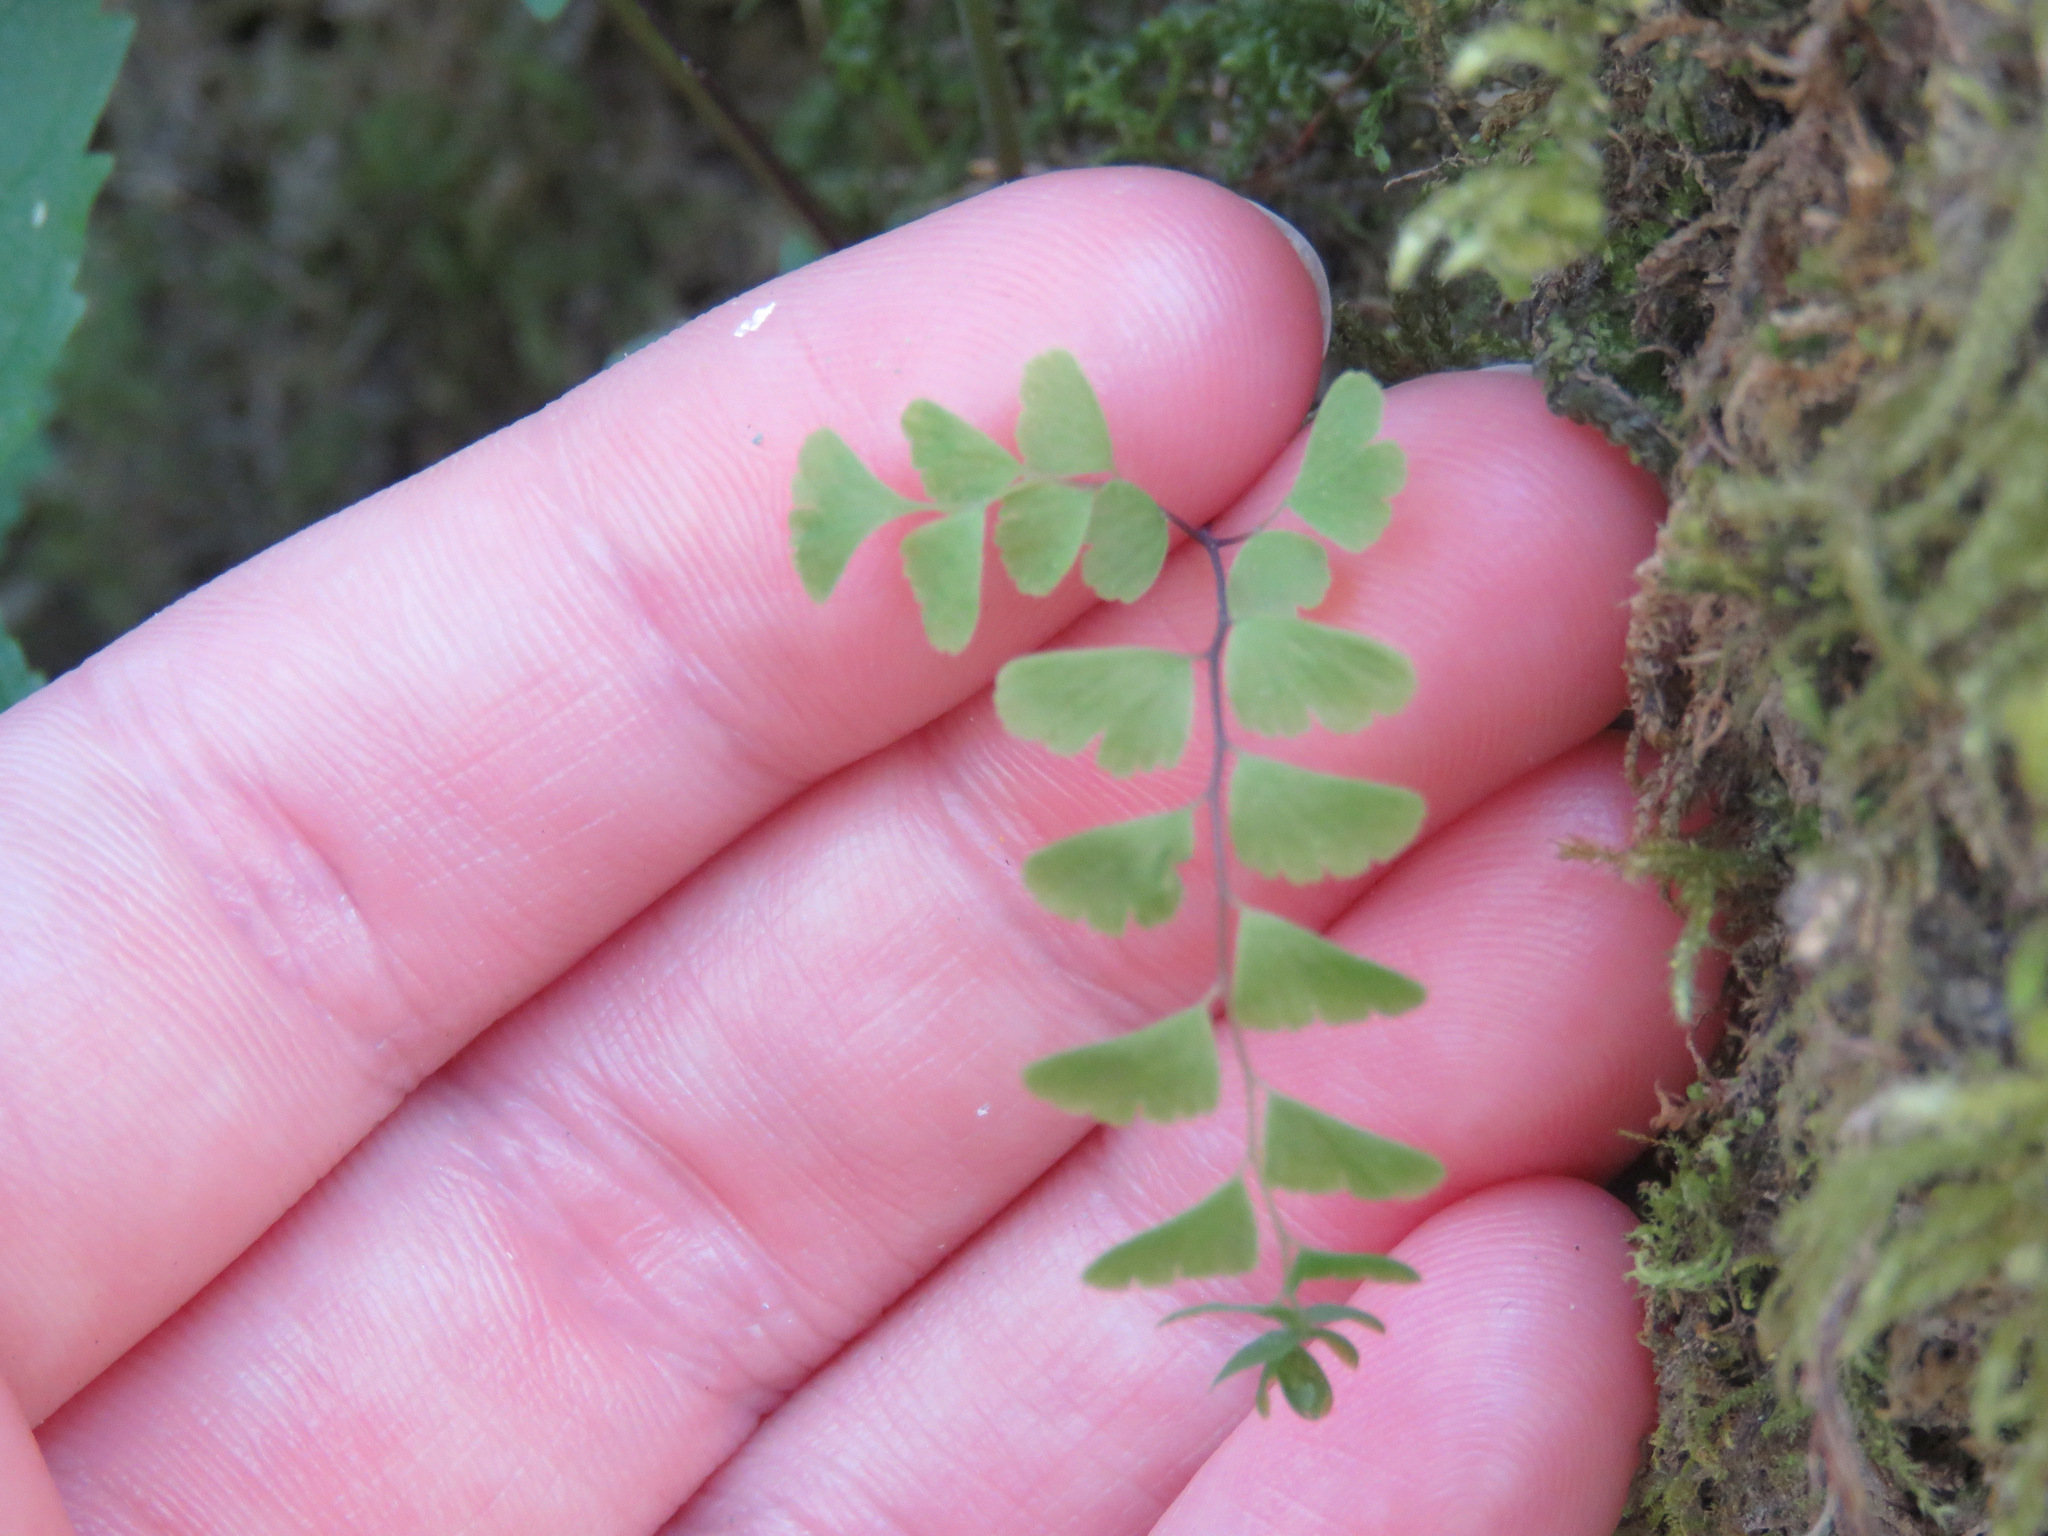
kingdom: Plantae
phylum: Tracheophyta
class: Polypodiopsida
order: Polypodiales
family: Pteridaceae
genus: Adiantum
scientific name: Adiantum aleuticum
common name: Aleutian maidenhair fern
